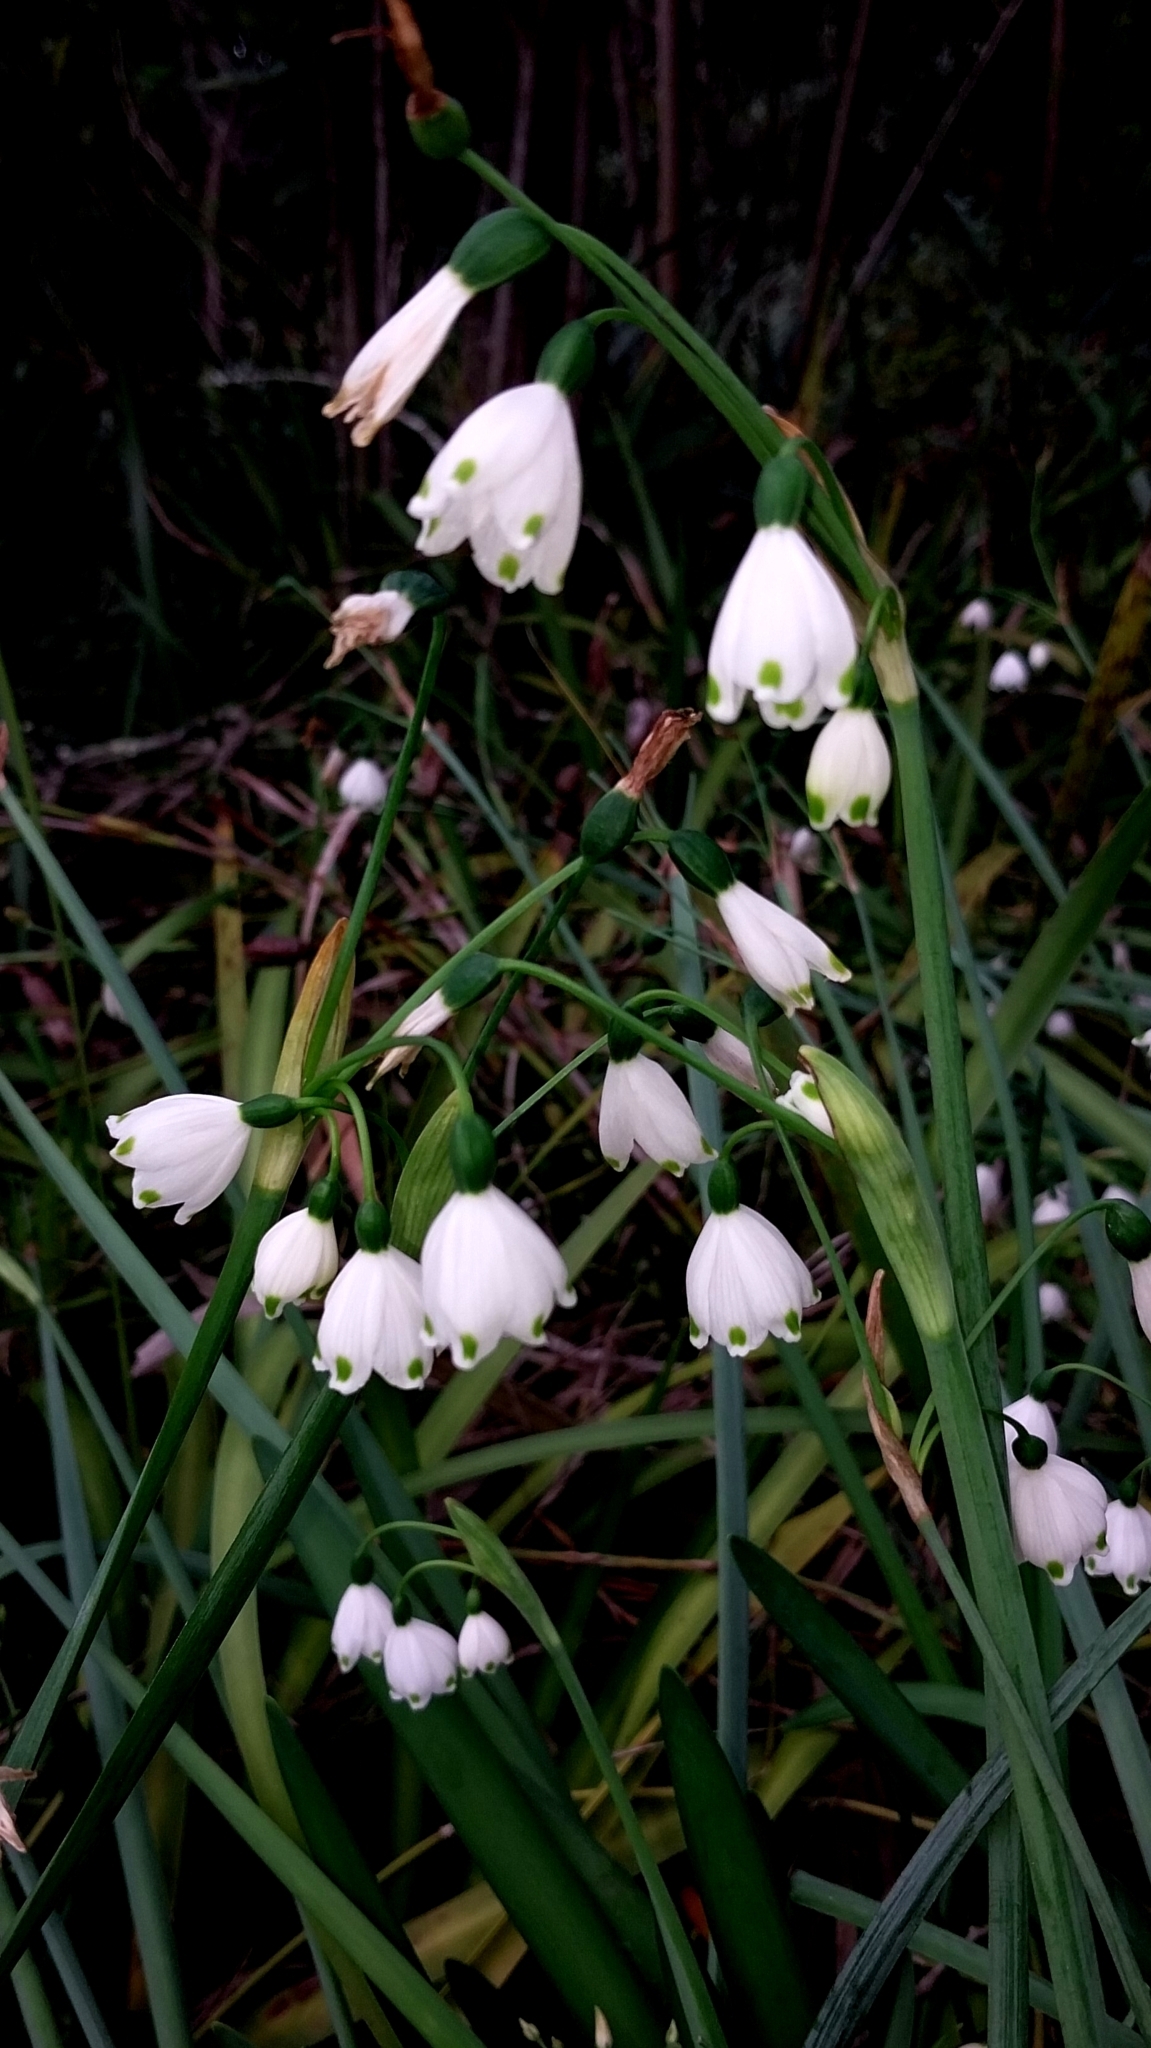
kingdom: Plantae
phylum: Tracheophyta
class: Liliopsida
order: Asparagales
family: Amaryllidaceae
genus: Leucojum
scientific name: Leucojum aestivum
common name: Summer snowflake
